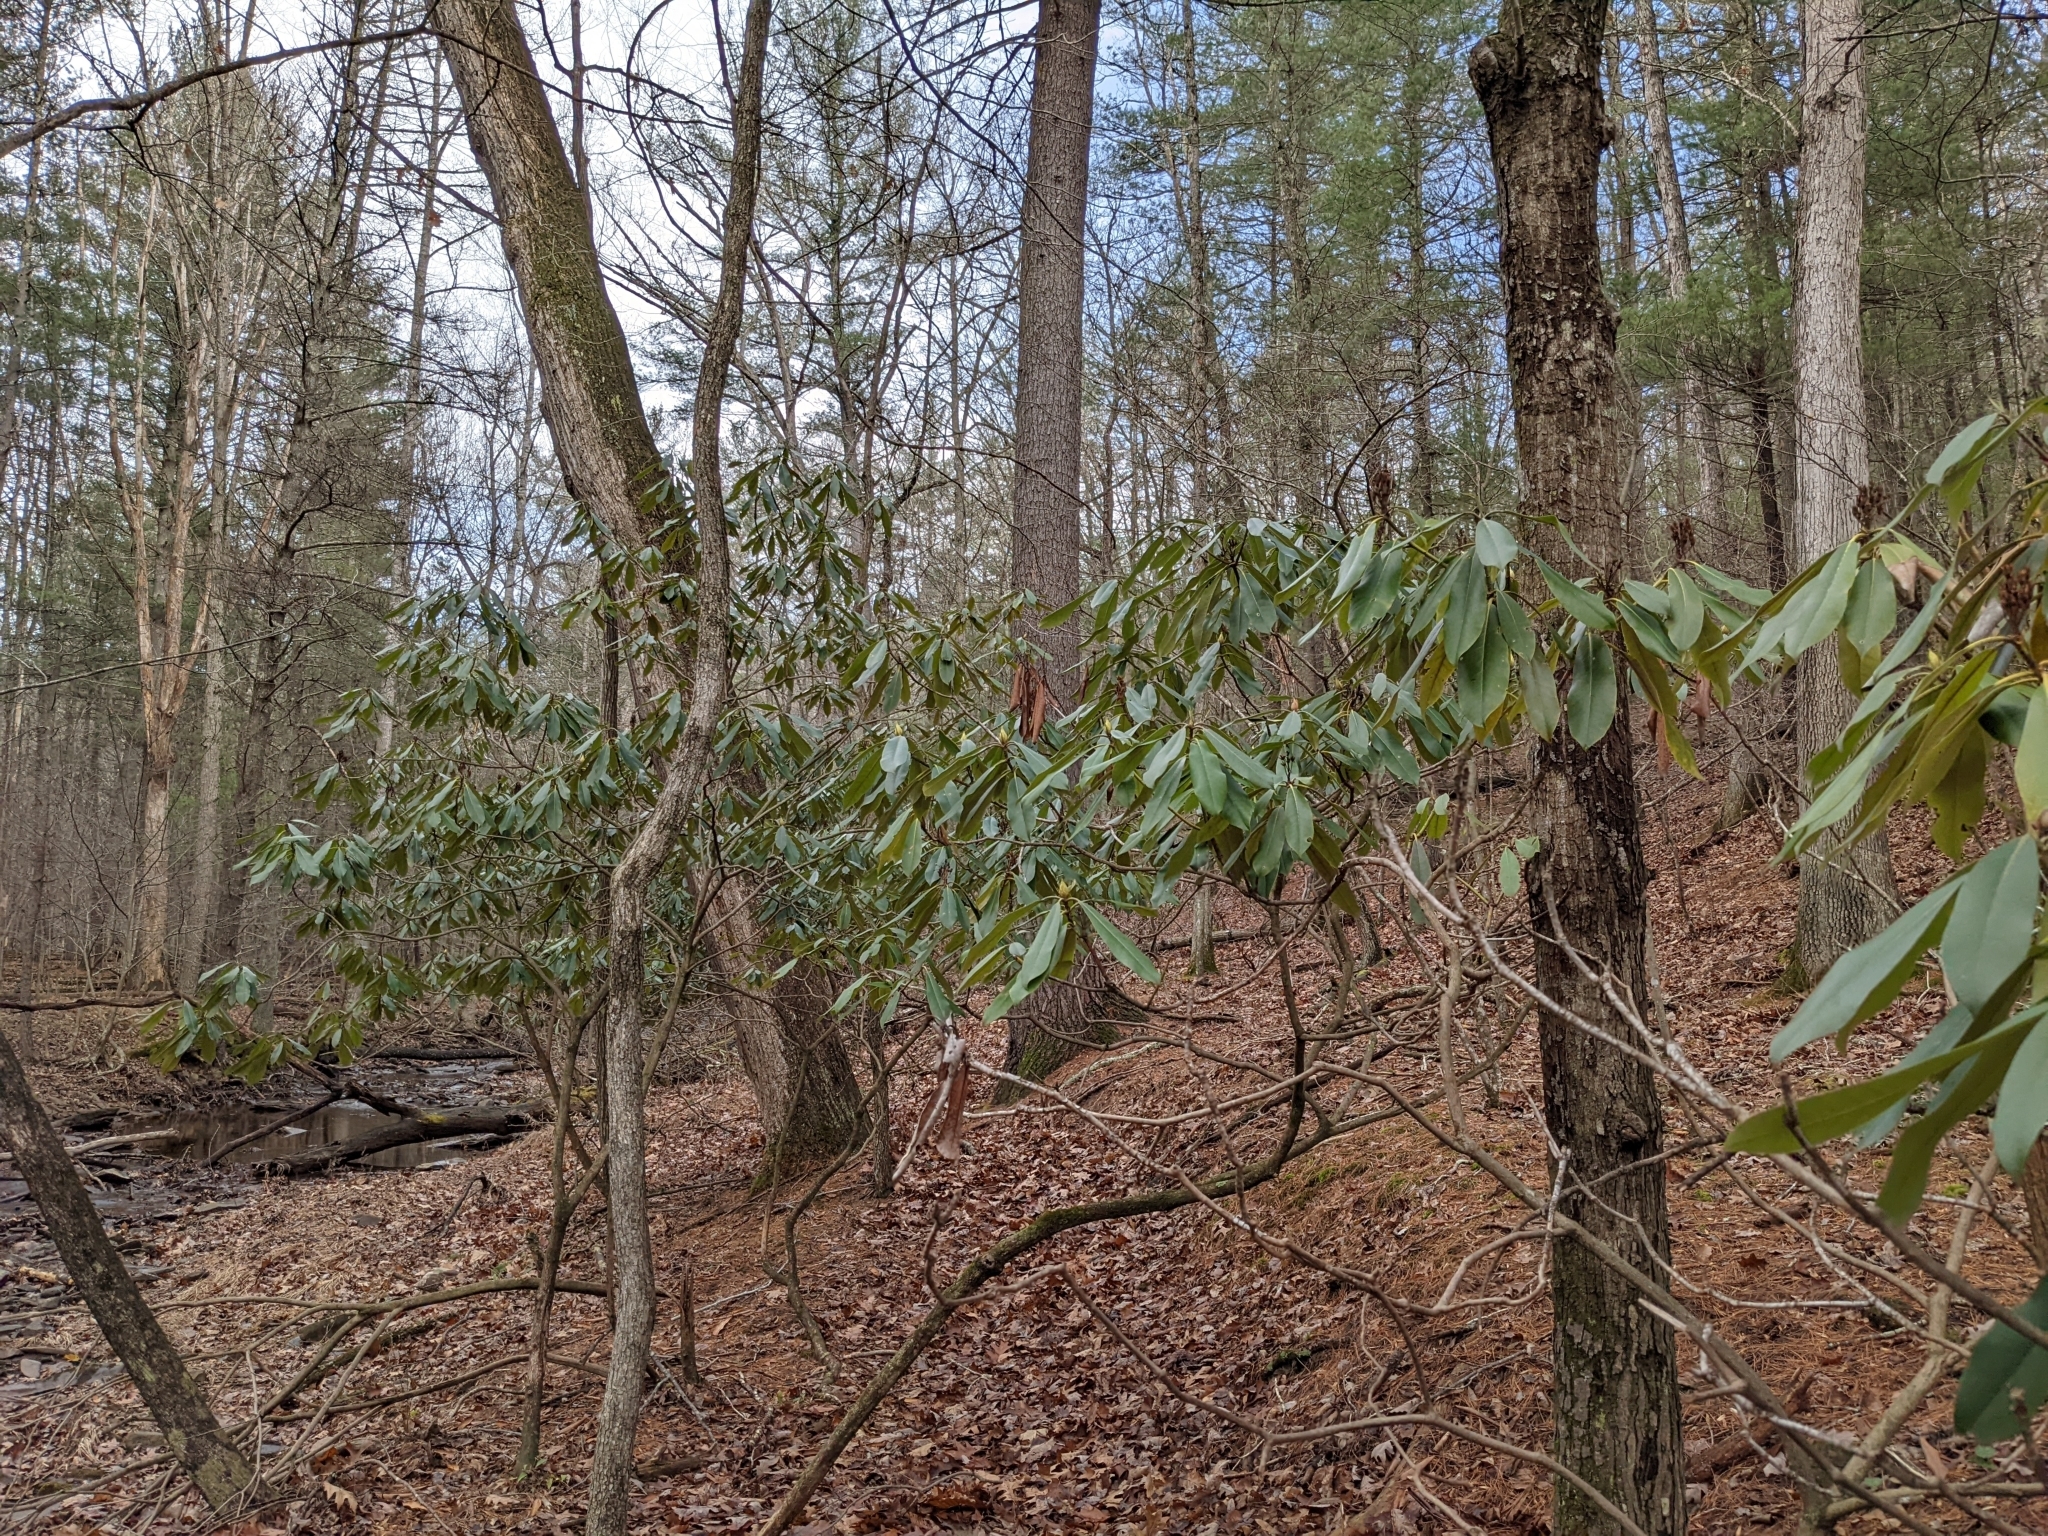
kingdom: Plantae
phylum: Tracheophyta
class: Magnoliopsida
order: Ericales
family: Ericaceae
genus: Rhododendron
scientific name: Rhododendron maximum
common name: Great rhododendron
